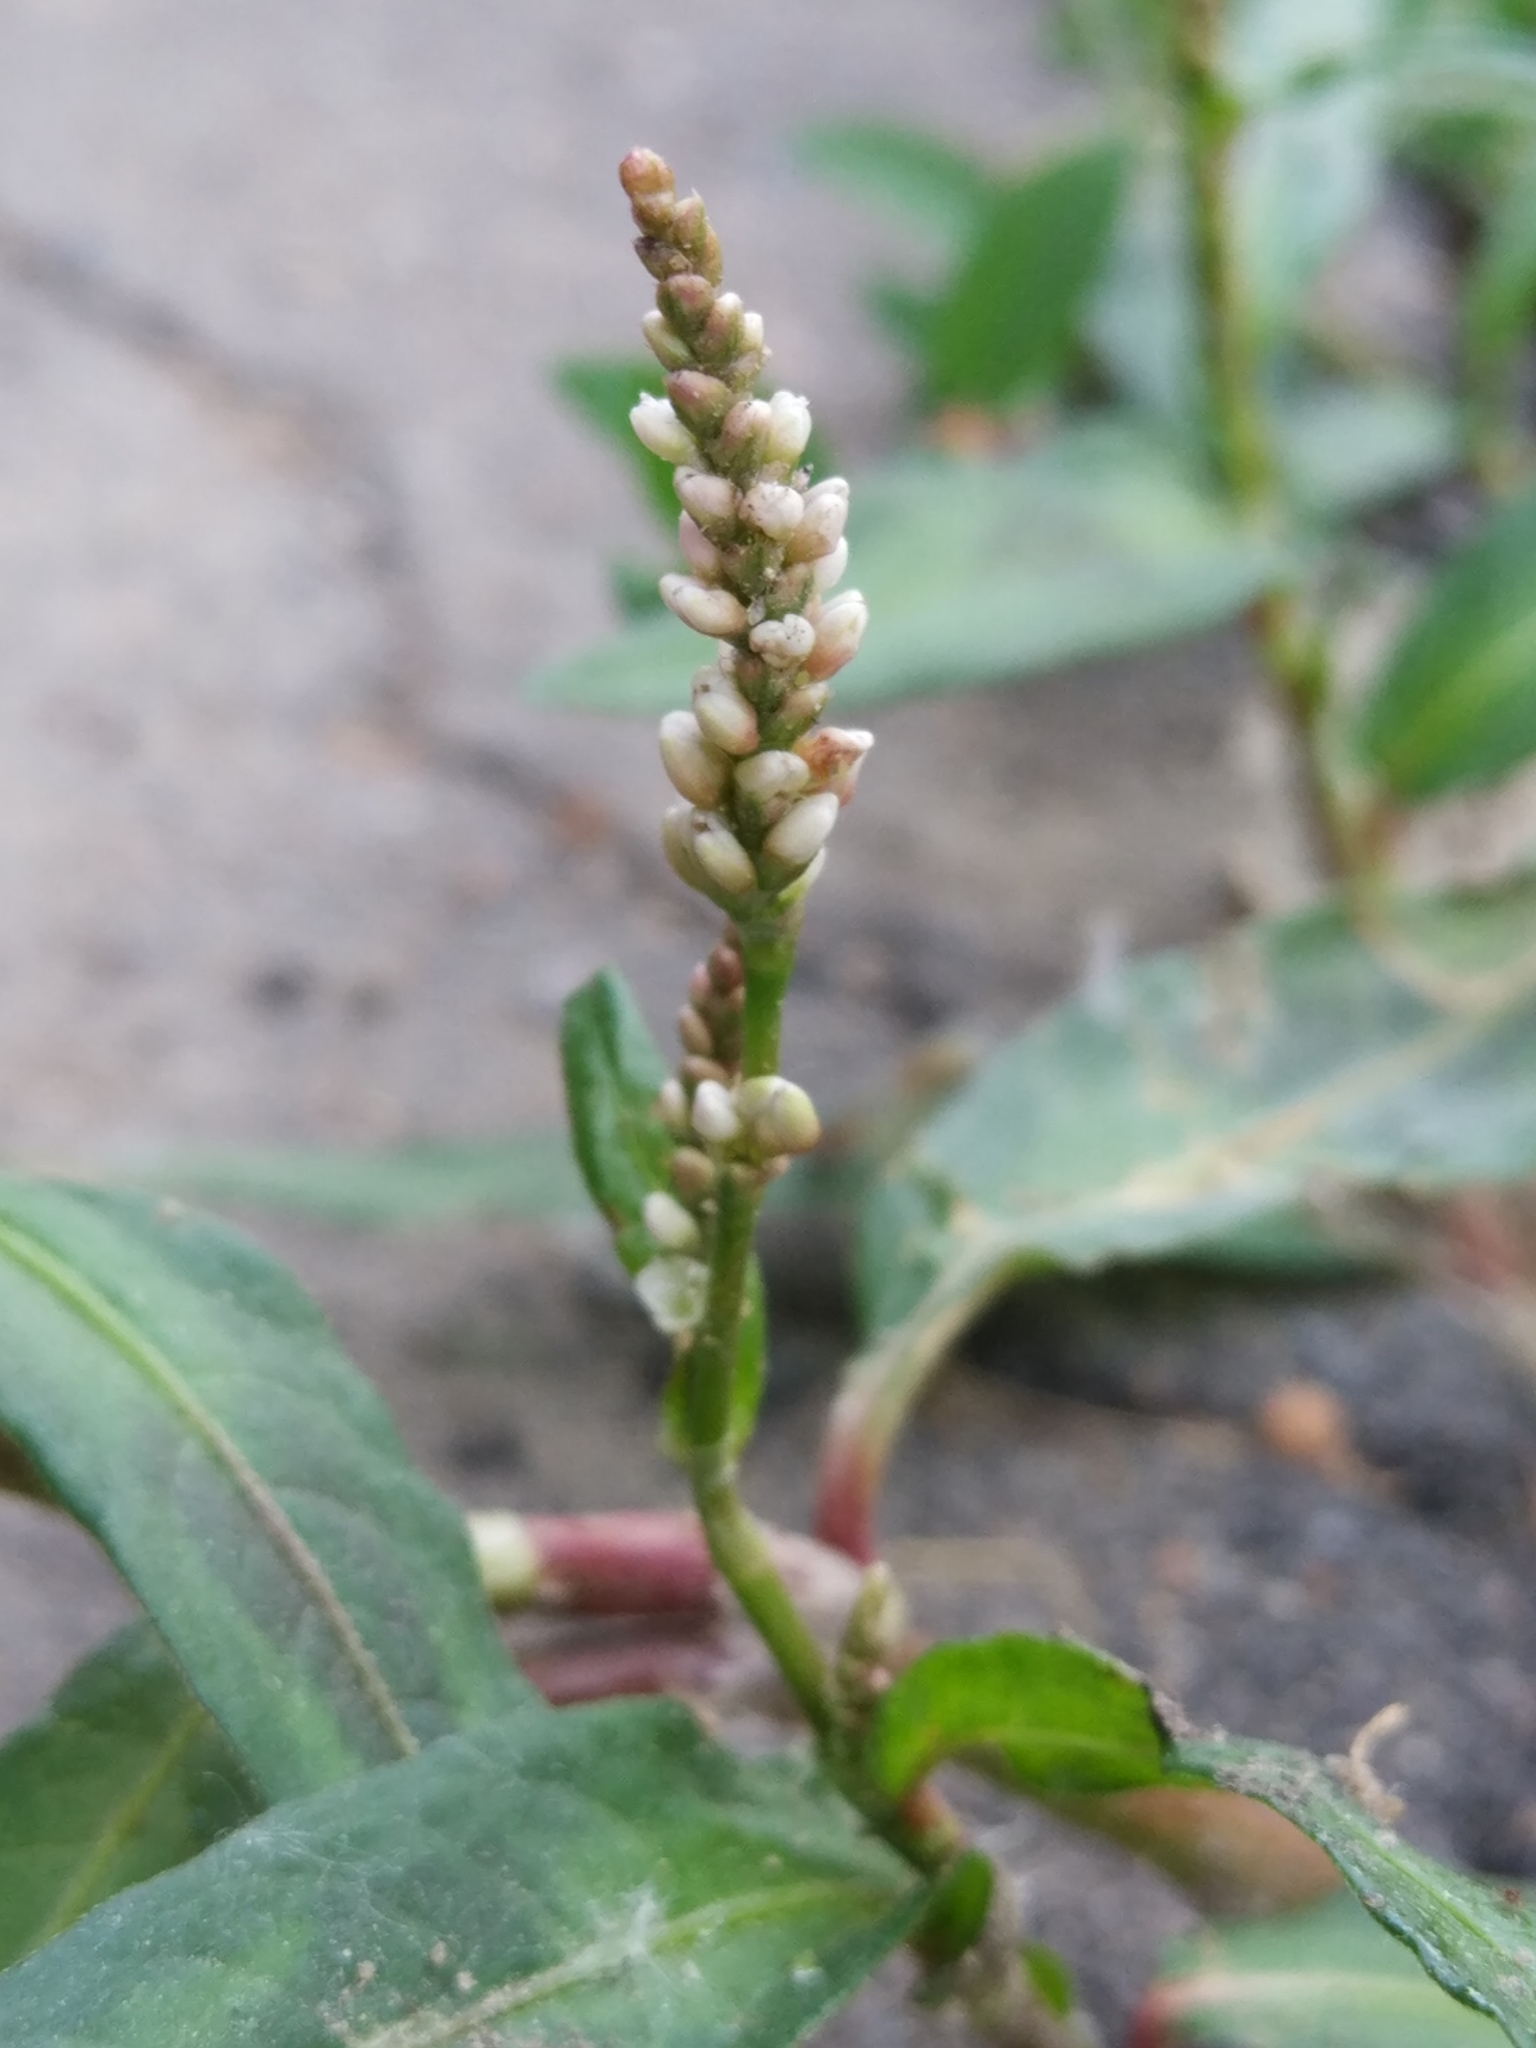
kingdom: Plantae
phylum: Tracheophyta
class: Magnoliopsida
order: Caryophyllales
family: Polygonaceae
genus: Persicaria
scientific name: Persicaria maculosa
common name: Redshank
